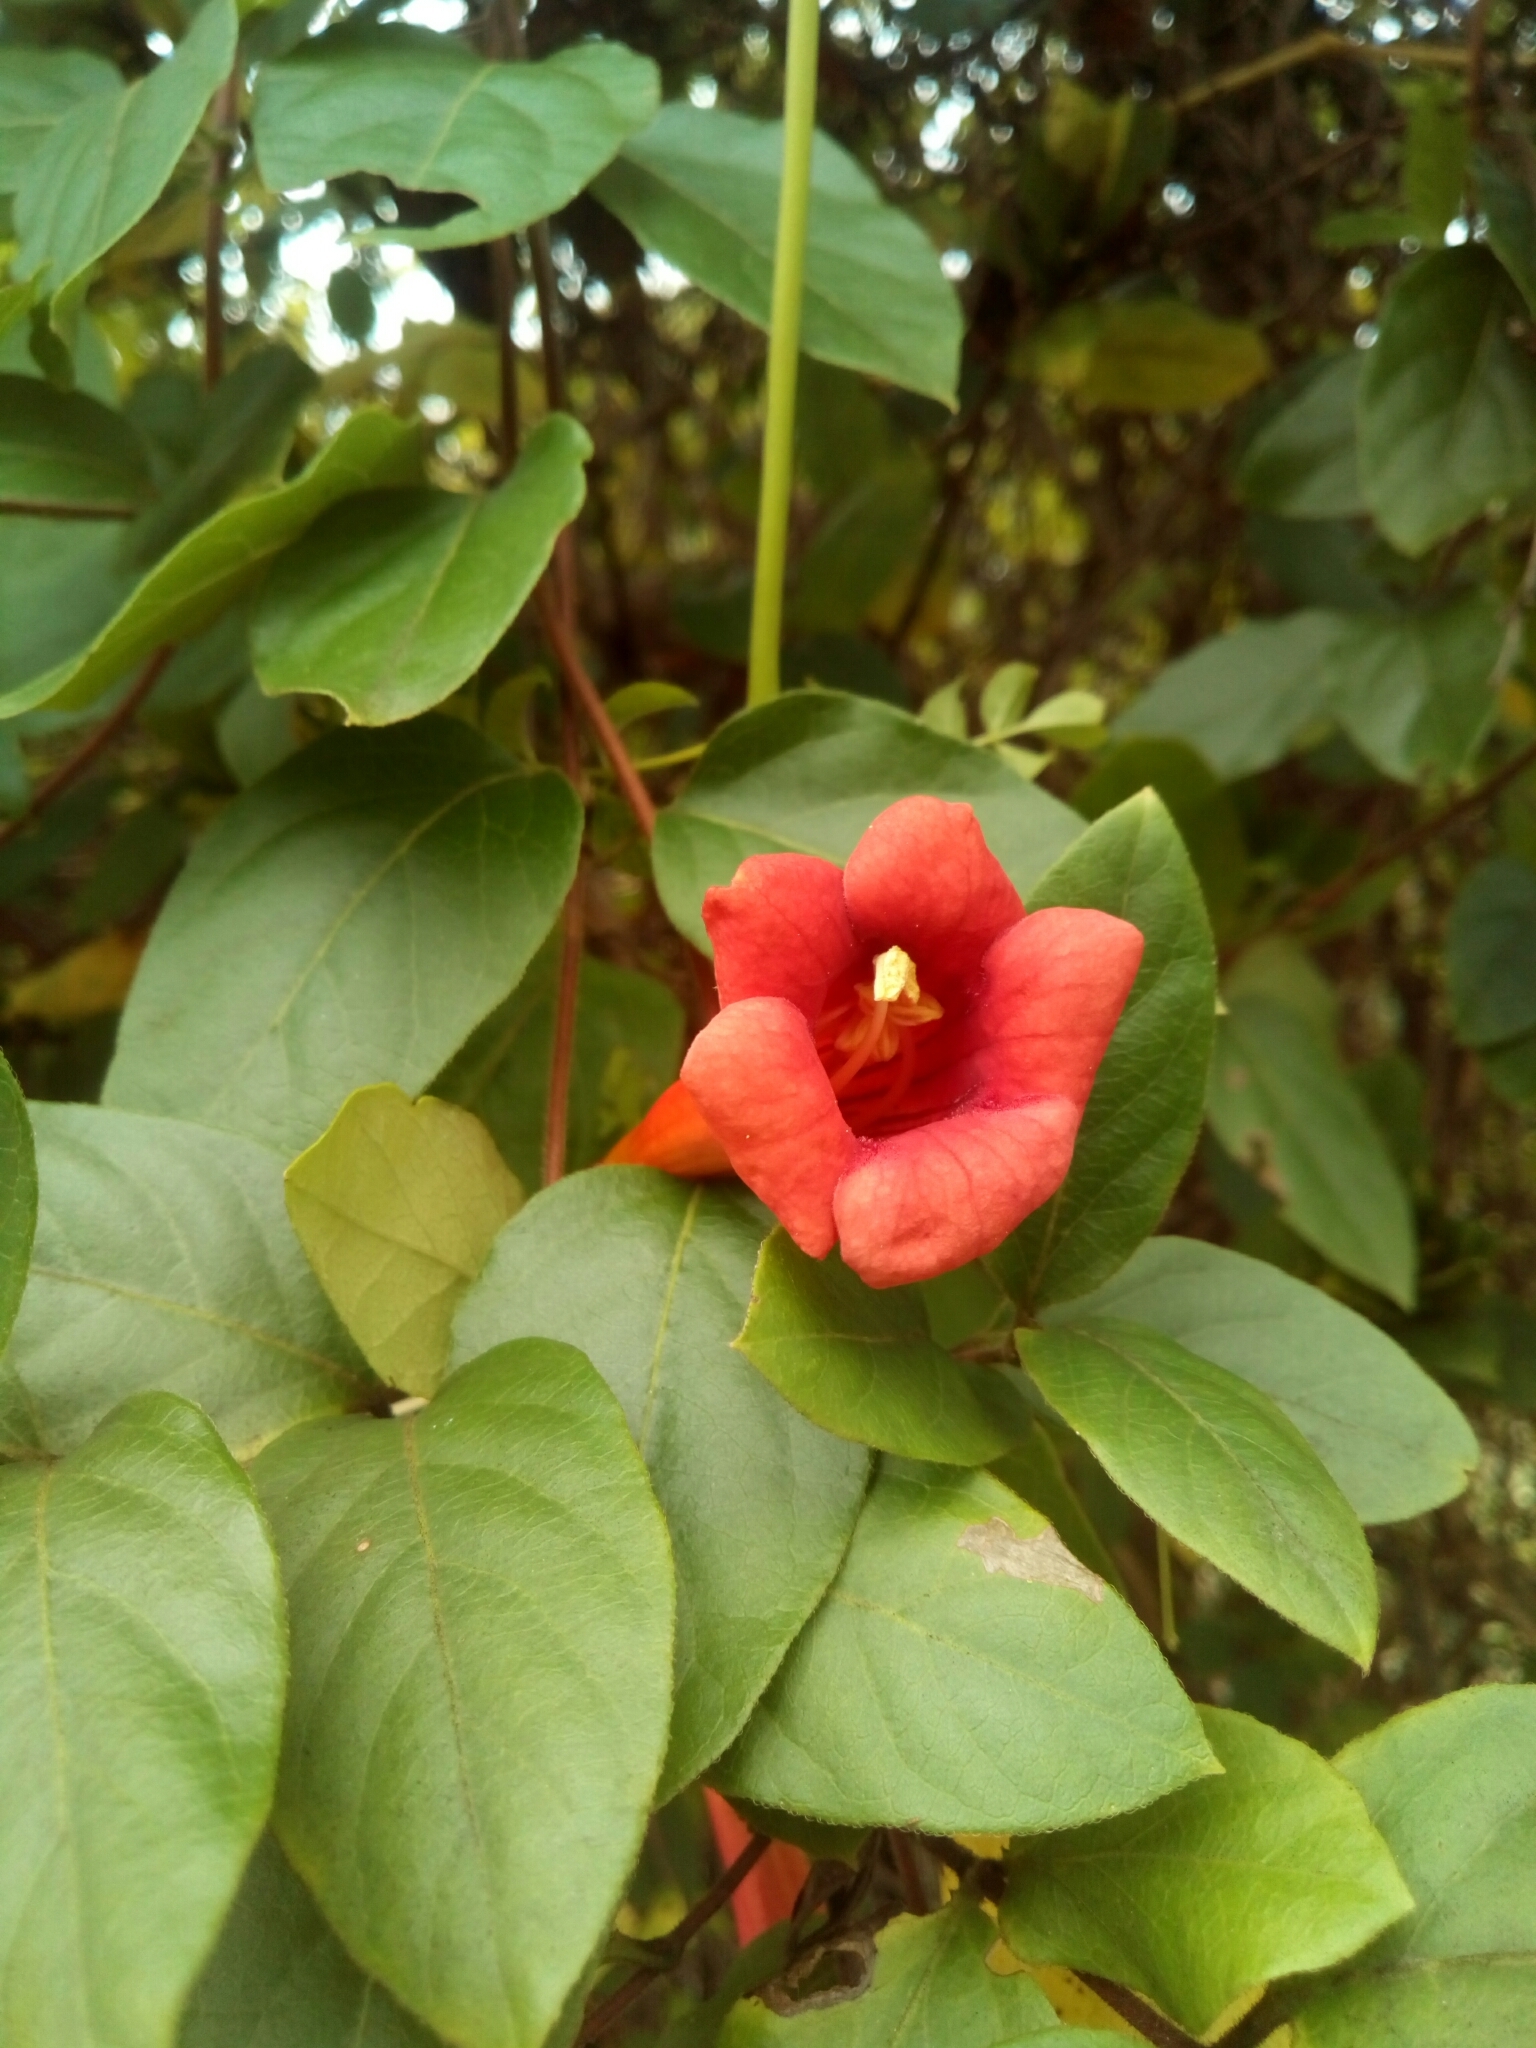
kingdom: Plantae
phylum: Tracheophyta
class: Magnoliopsida
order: Lamiales
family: Bignoniaceae
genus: Campsis
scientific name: Campsis radicans
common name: Trumpet-creeper
